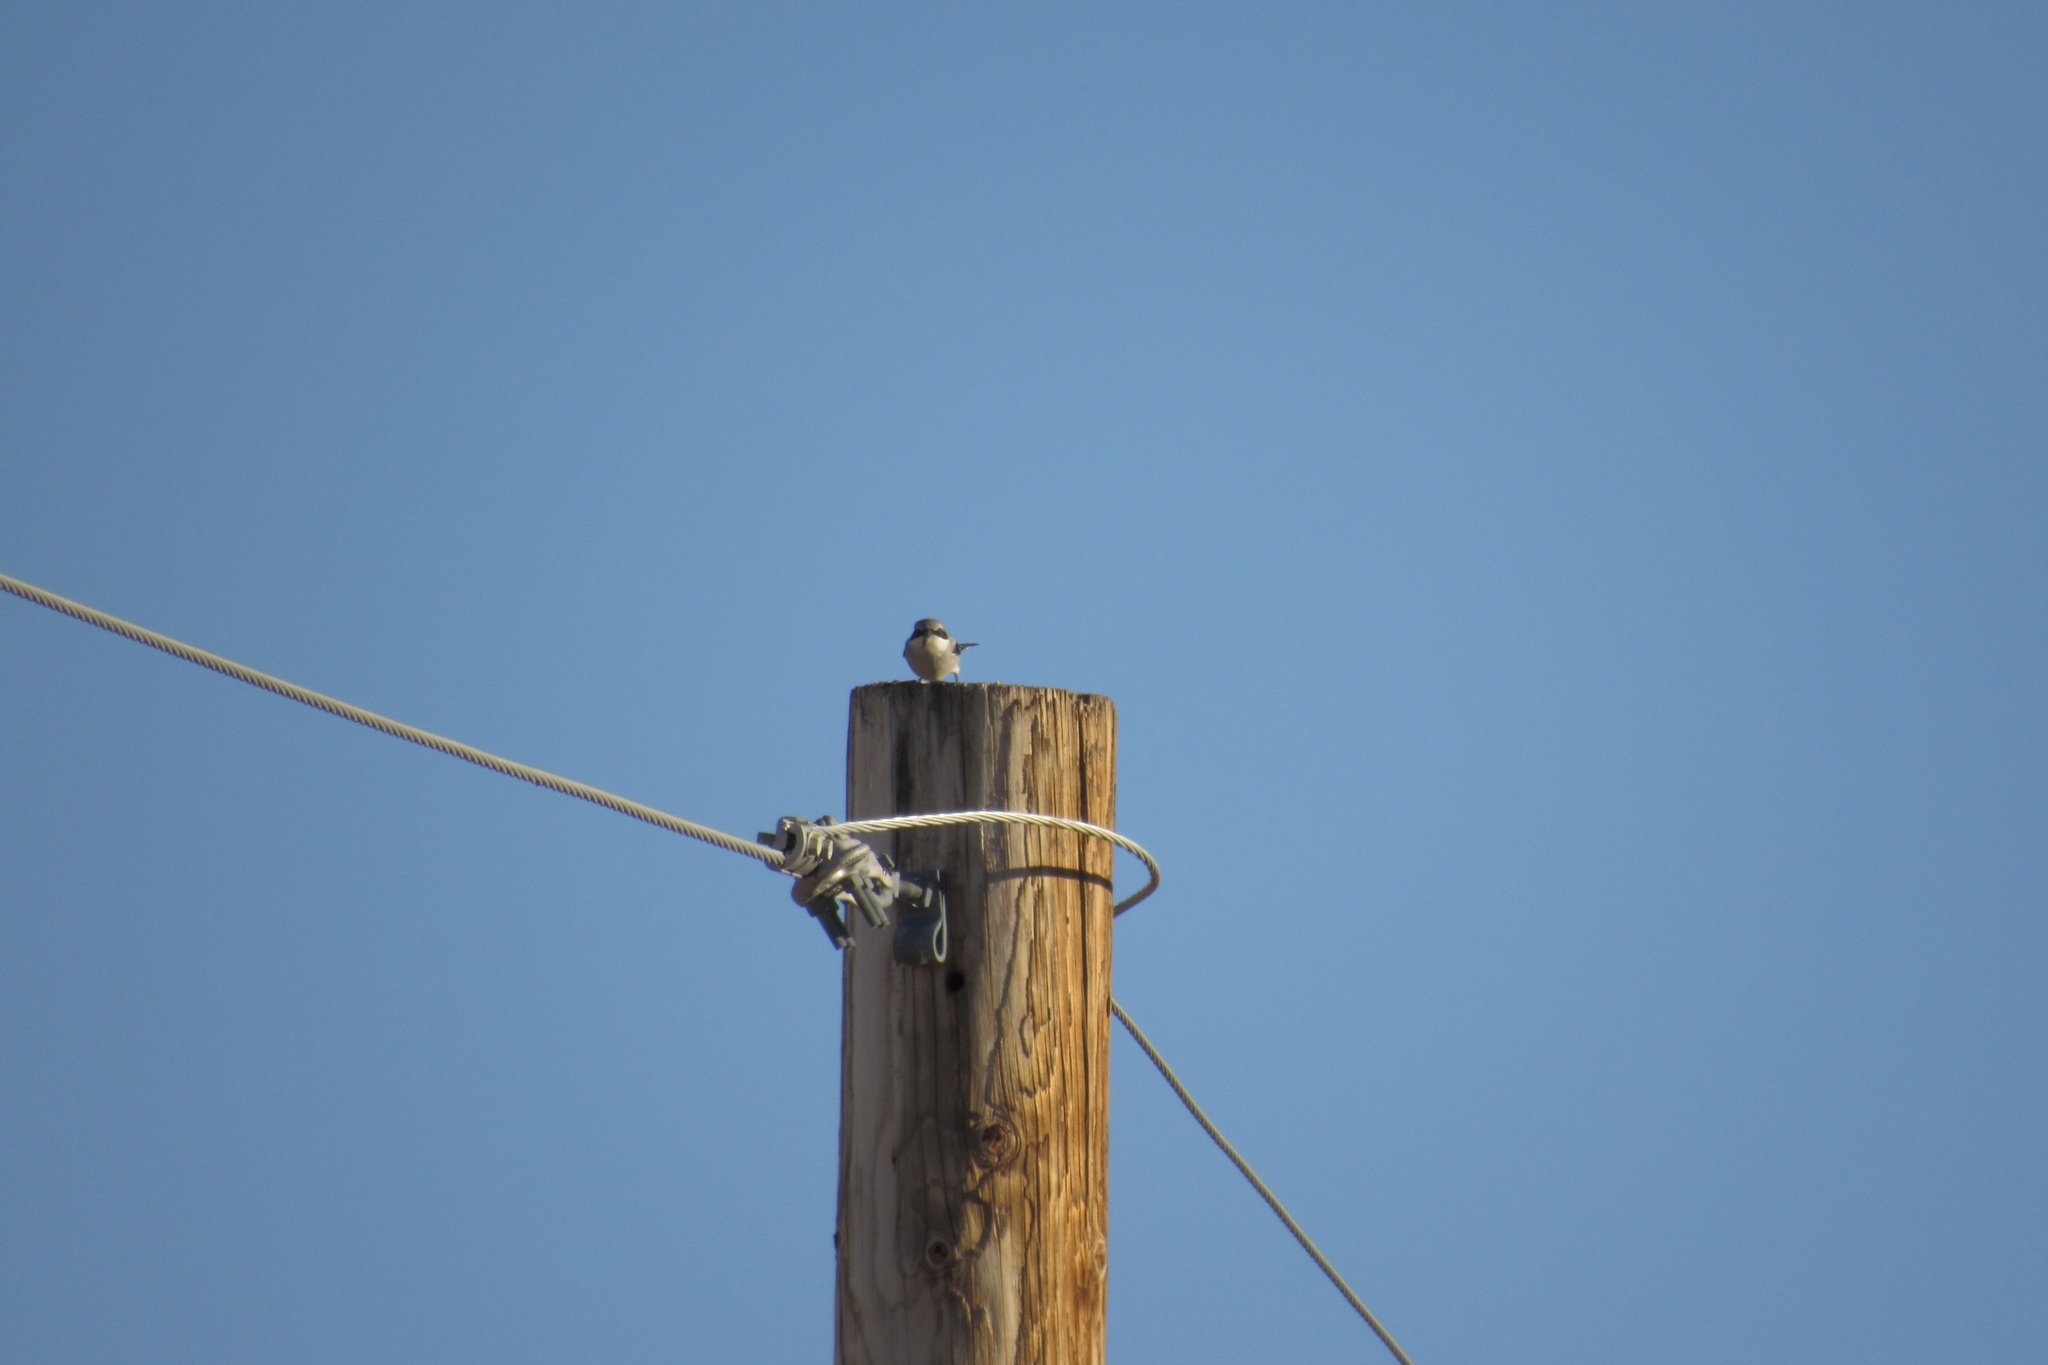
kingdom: Animalia
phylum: Chordata
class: Aves
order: Passeriformes
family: Laniidae
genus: Lanius
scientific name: Lanius ludovicianus
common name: Loggerhead shrike
